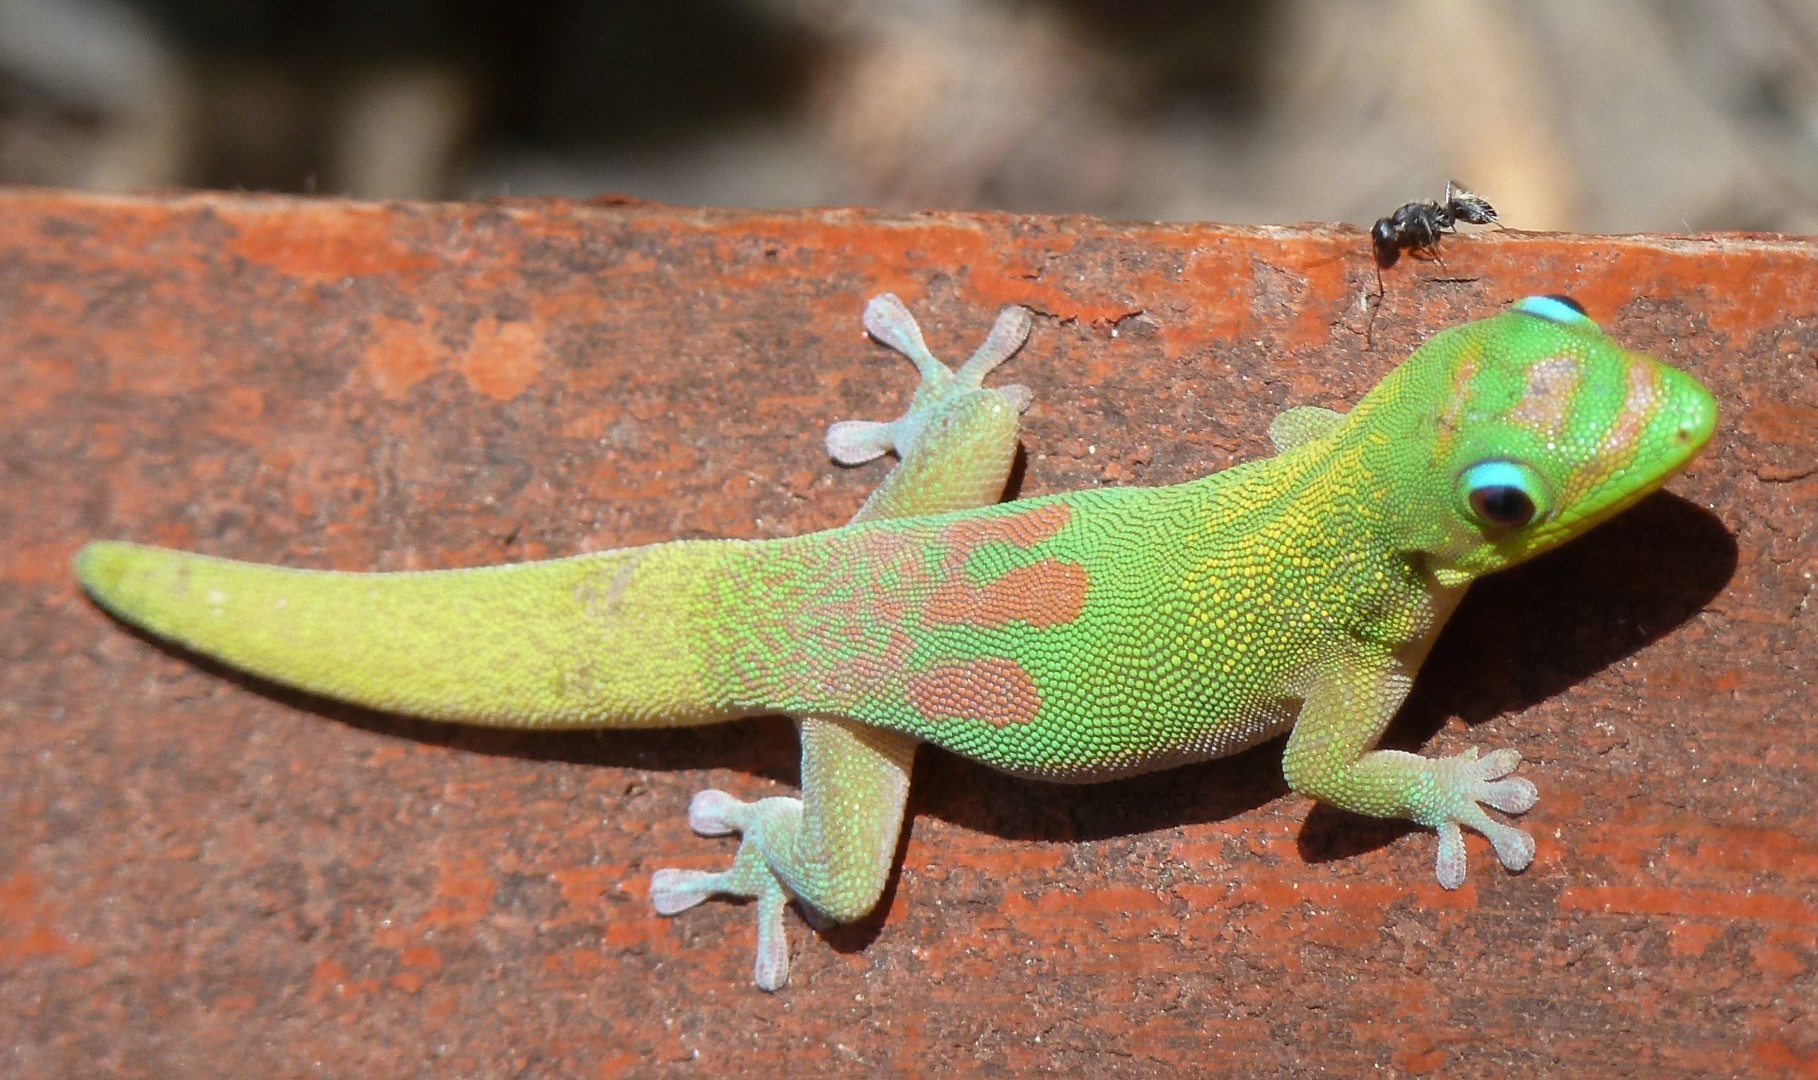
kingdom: Animalia
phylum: Chordata
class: Squamata
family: Gekkonidae
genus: Phelsuma
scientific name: Phelsuma laticauda
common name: Gold dust day gecko
